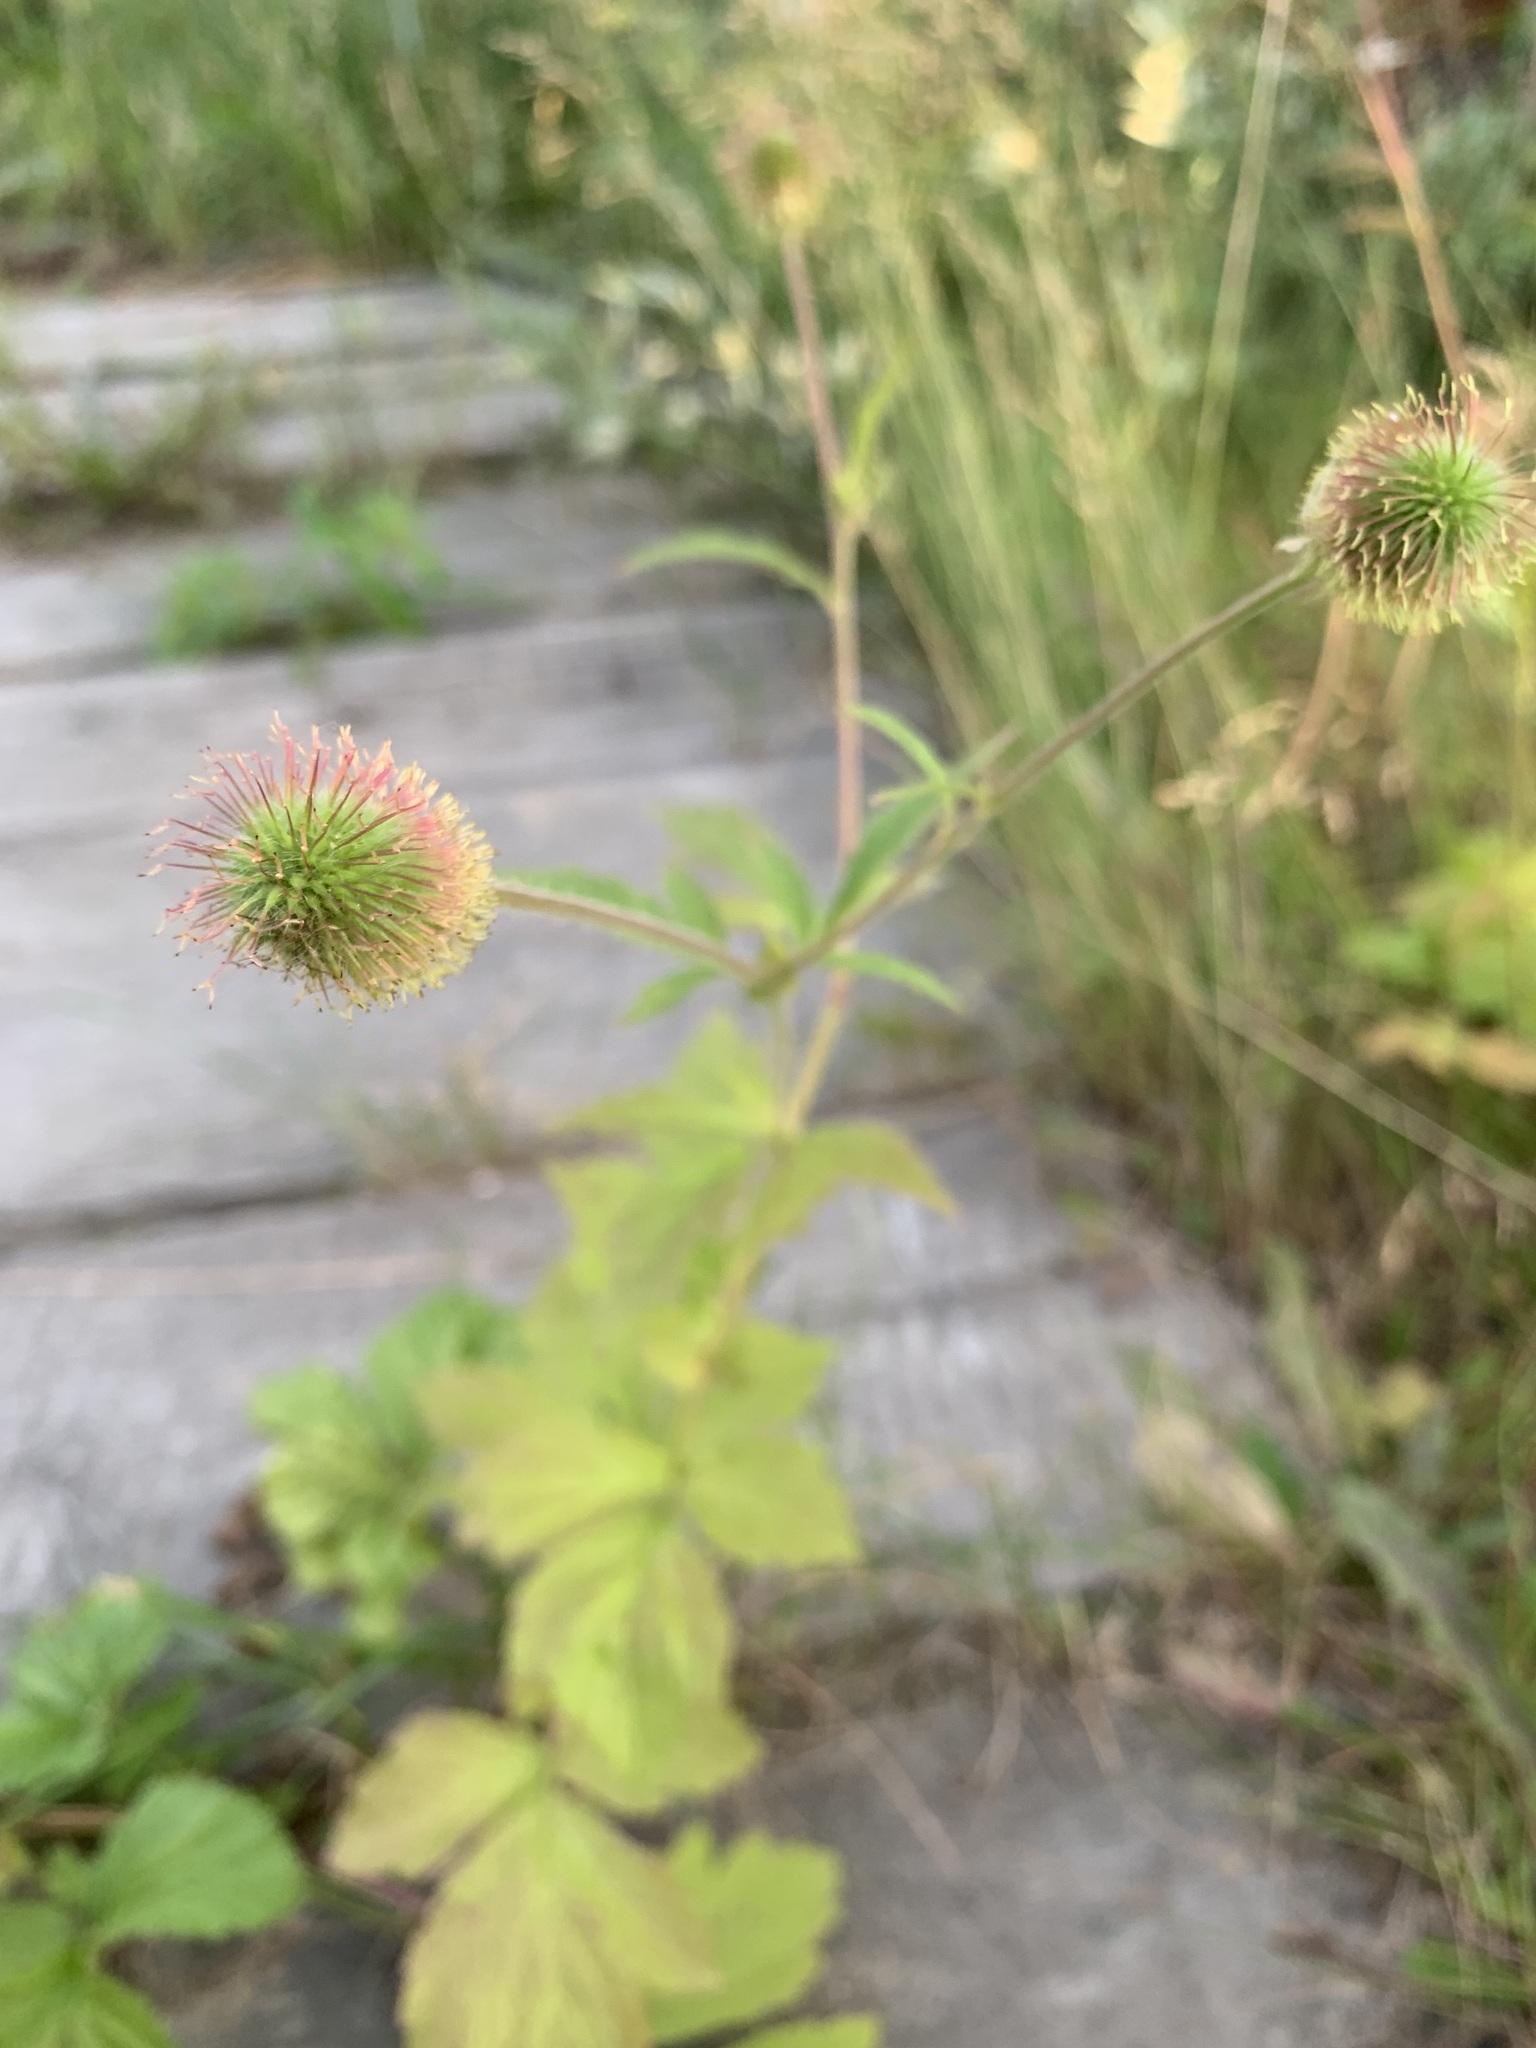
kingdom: Plantae
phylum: Tracheophyta
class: Magnoliopsida
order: Rosales
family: Rosaceae
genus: Geum
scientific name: Geum aleppicum
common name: Yellow avens
